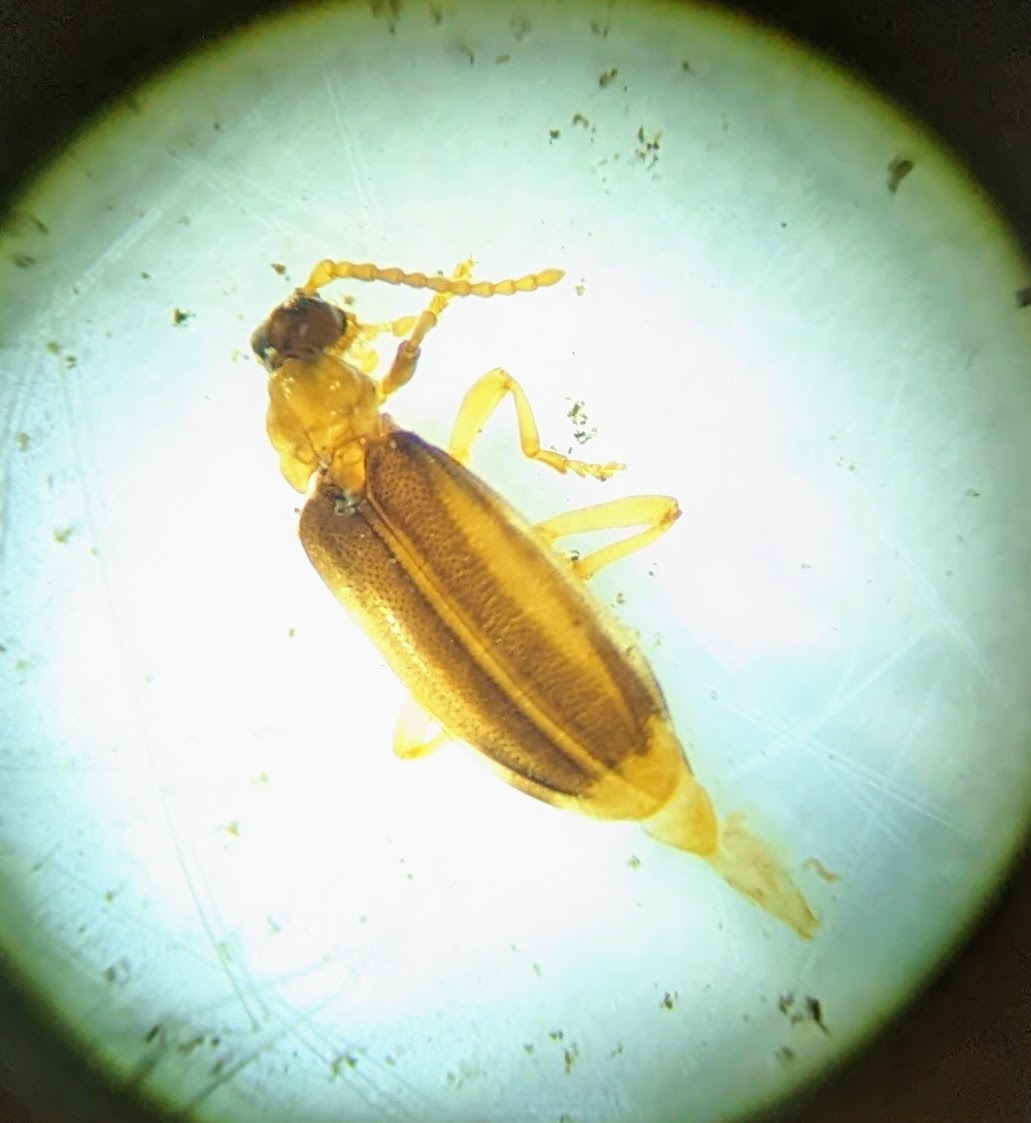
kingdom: Animalia
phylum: Arthropoda
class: Insecta
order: Coleoptera
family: Anthicidae
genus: Ischalia
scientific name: Ischalia costata
